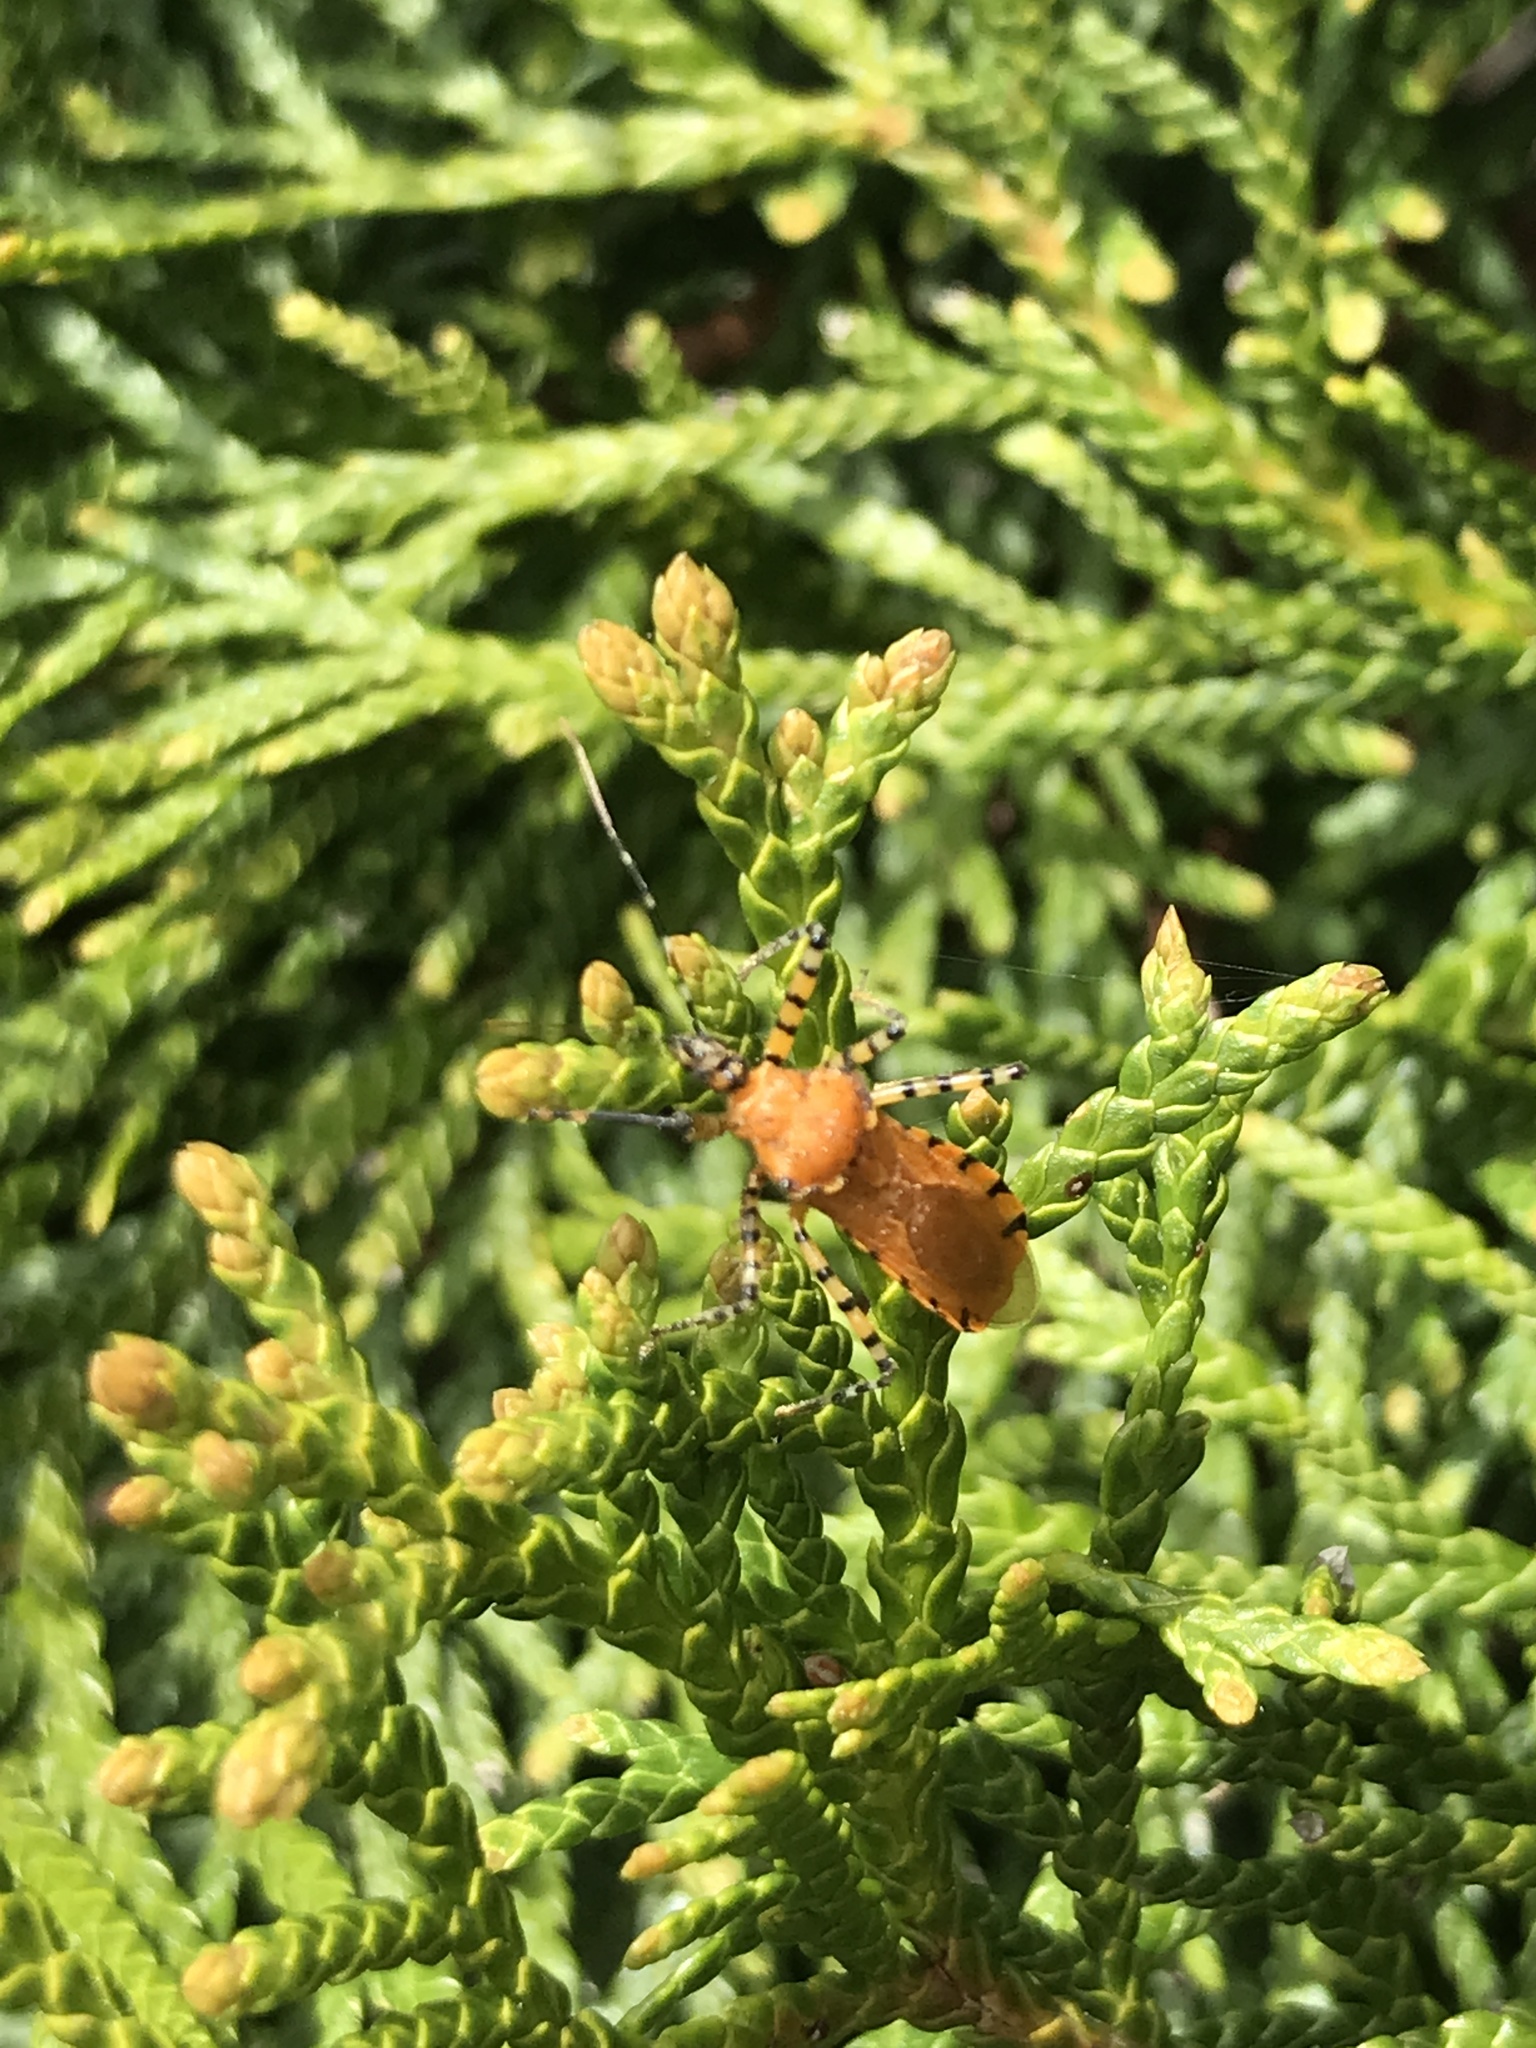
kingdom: Animalia
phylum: Arthropoda
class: Insecta
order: Hemiptera
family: Reduviidae
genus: Pselliopus
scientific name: Pselliopus barberi
